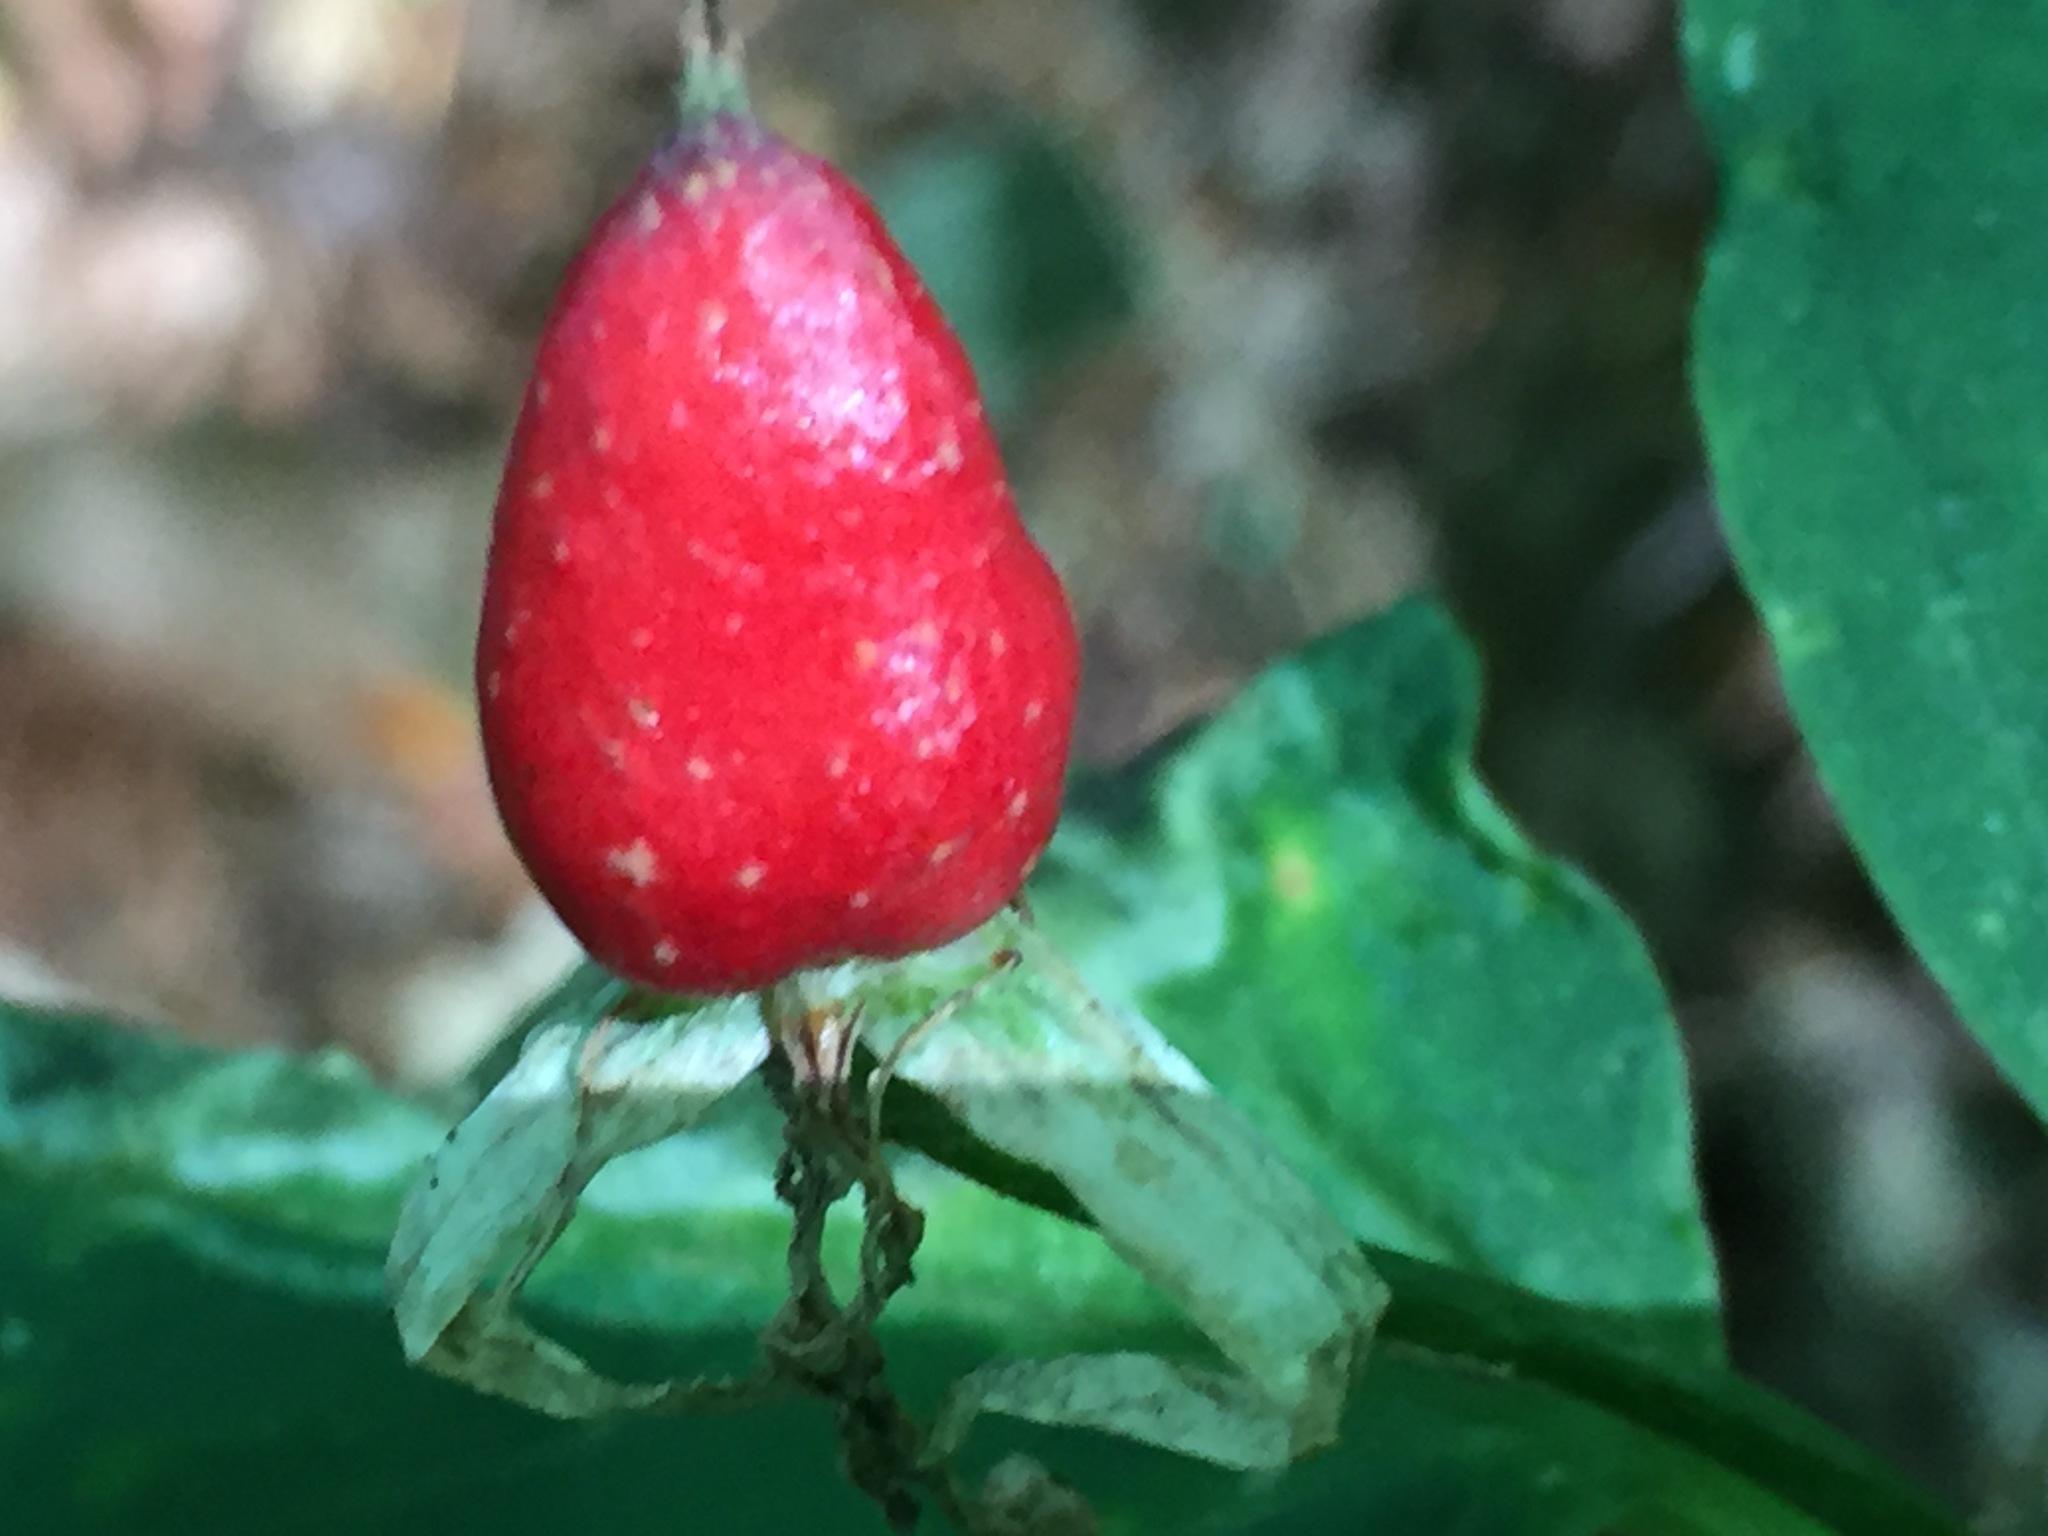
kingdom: Plantae
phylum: Tracheophyta
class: Liliopsida
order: Liliales
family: Melanthiaceae
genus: Trillium
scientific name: Trillium undulatum
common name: Paint trillium
